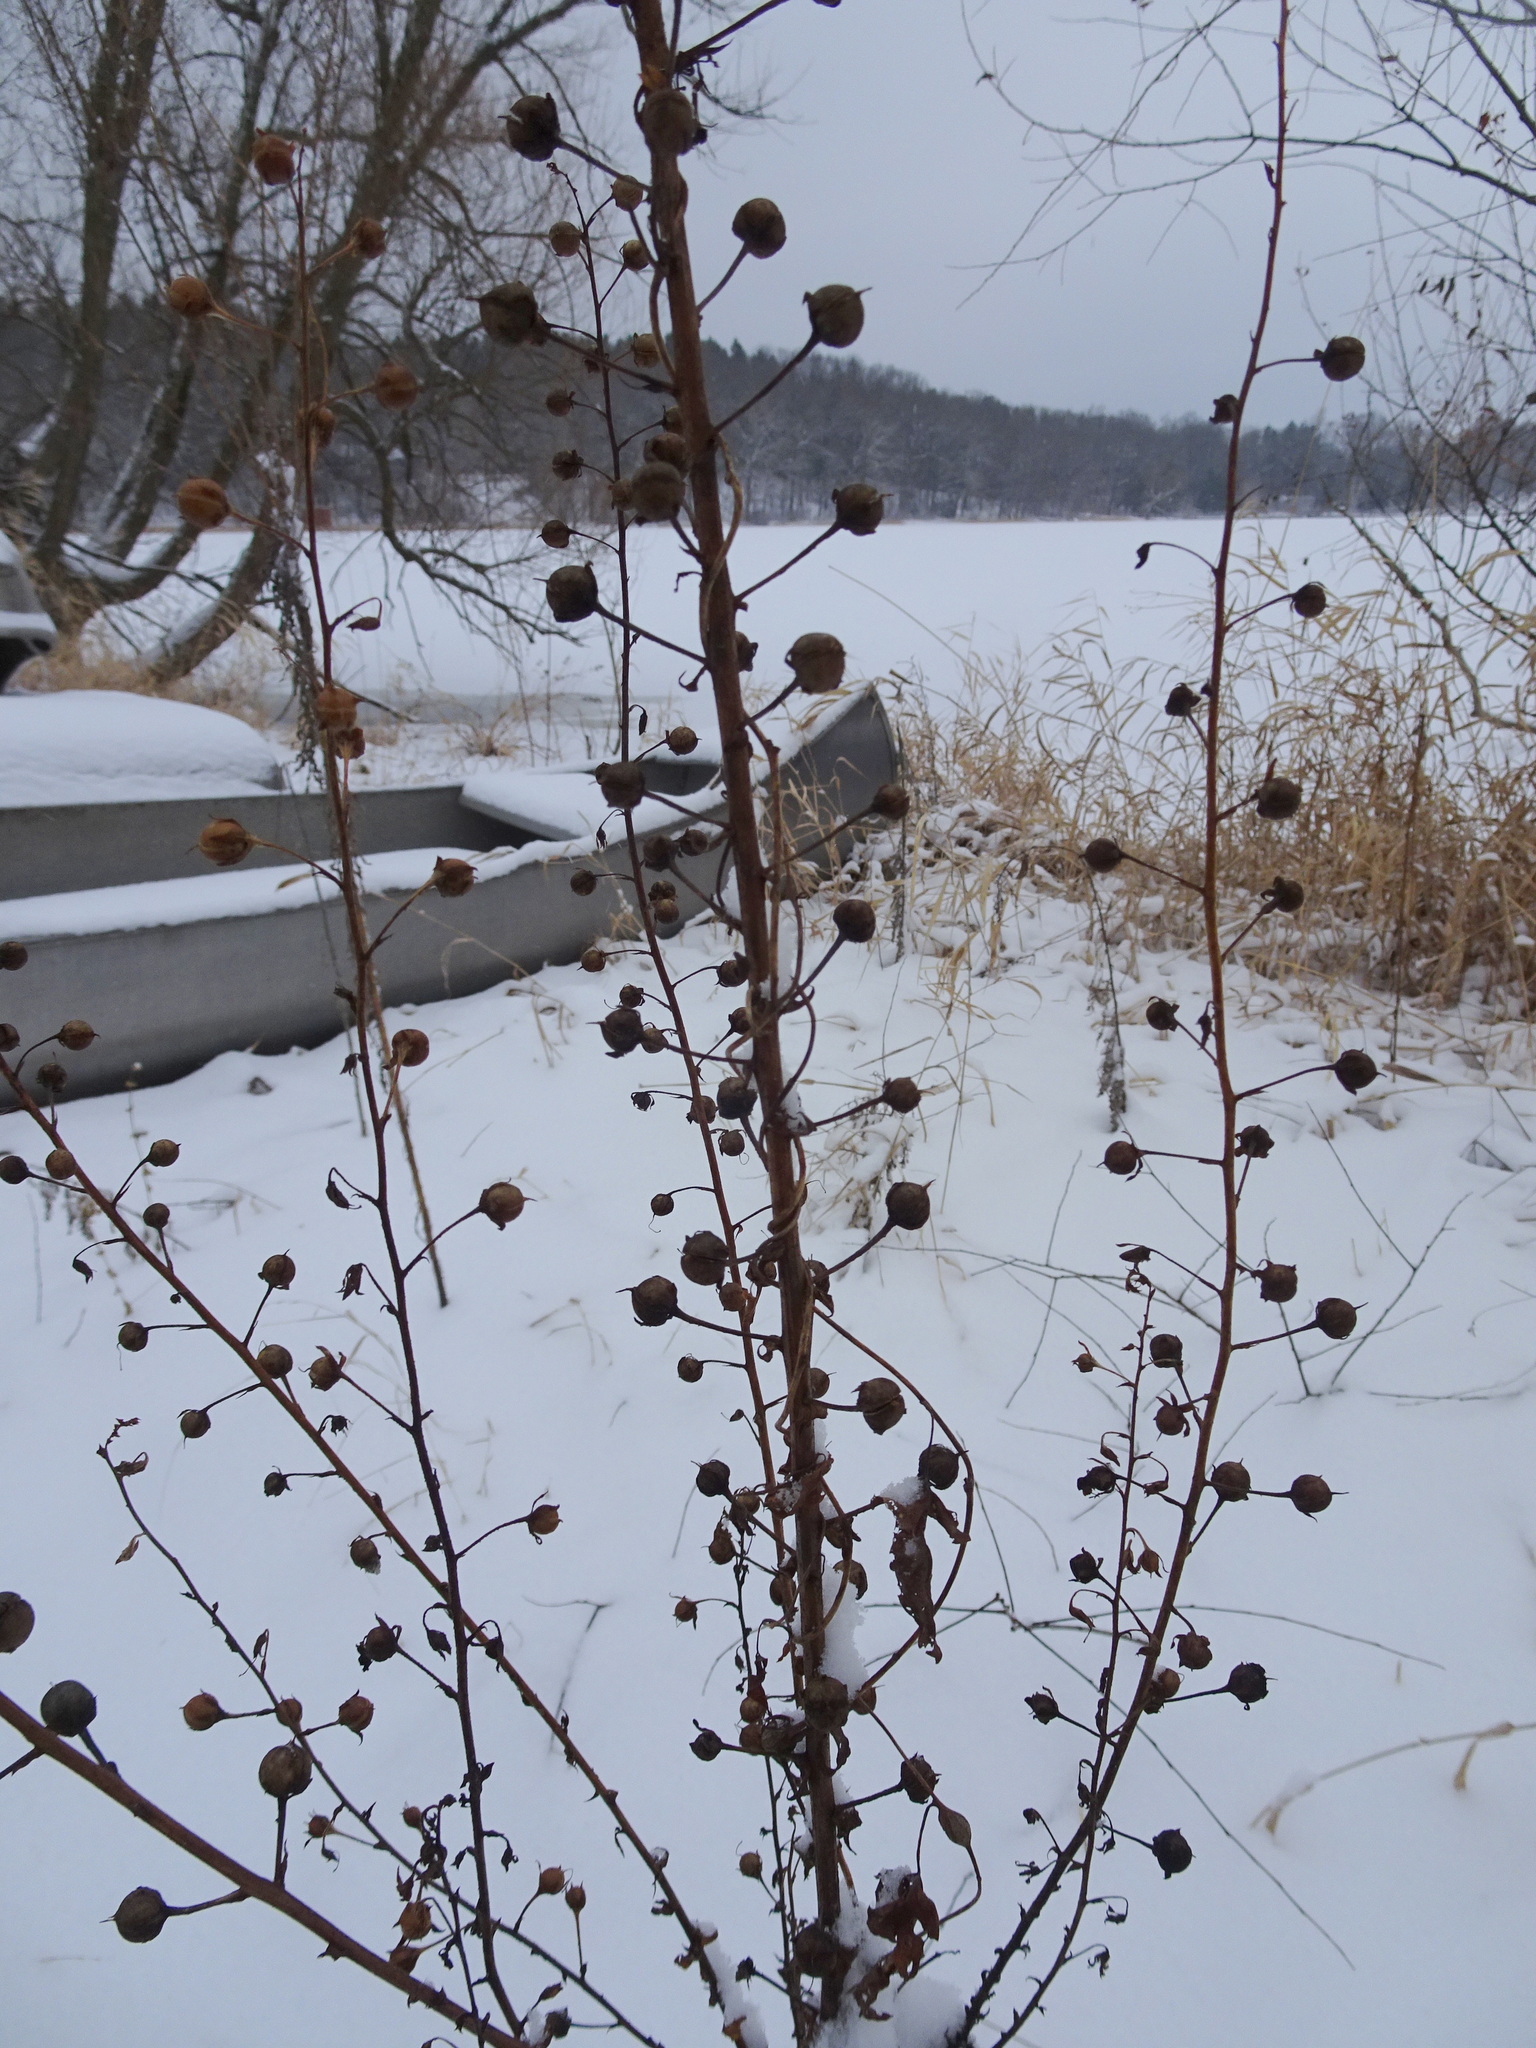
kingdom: Plantae
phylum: Tracheophyta
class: Magnoliopsida
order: Lamiales
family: Scrophulariaceae
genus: Verbascum
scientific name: Verbascum blattaria
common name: Moth mullein
